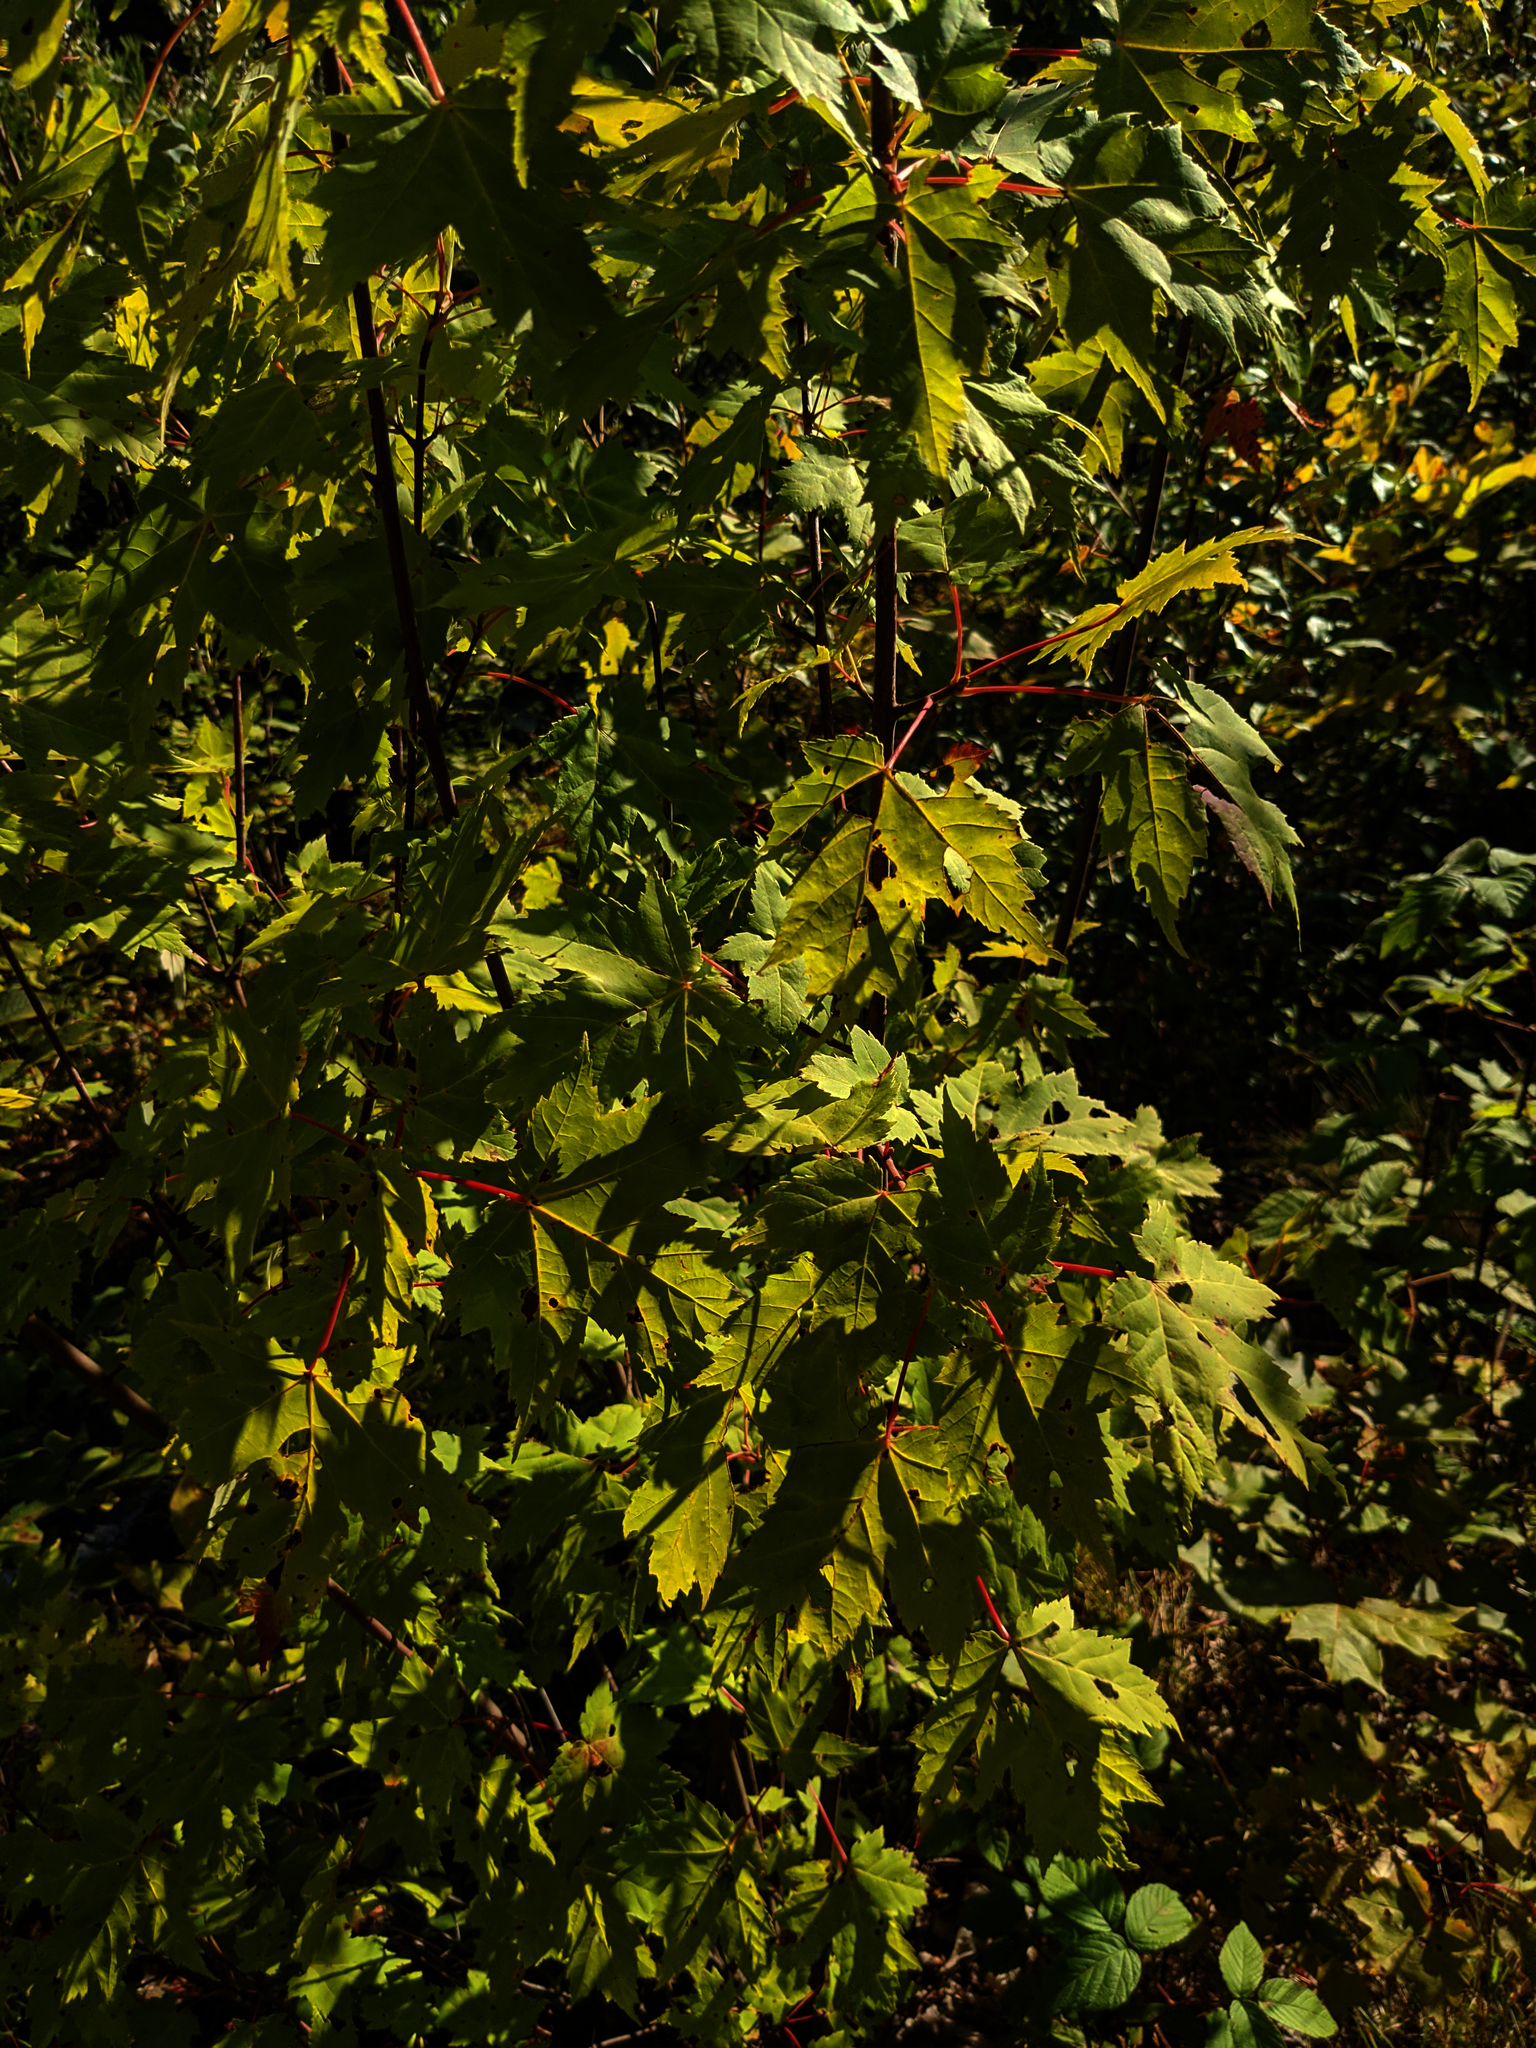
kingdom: Plantae
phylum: Tracheophyta
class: Magnoliopsida
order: Sapindales
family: Sapindaceae
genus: Acer
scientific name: Acer rubrum
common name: Red maple
